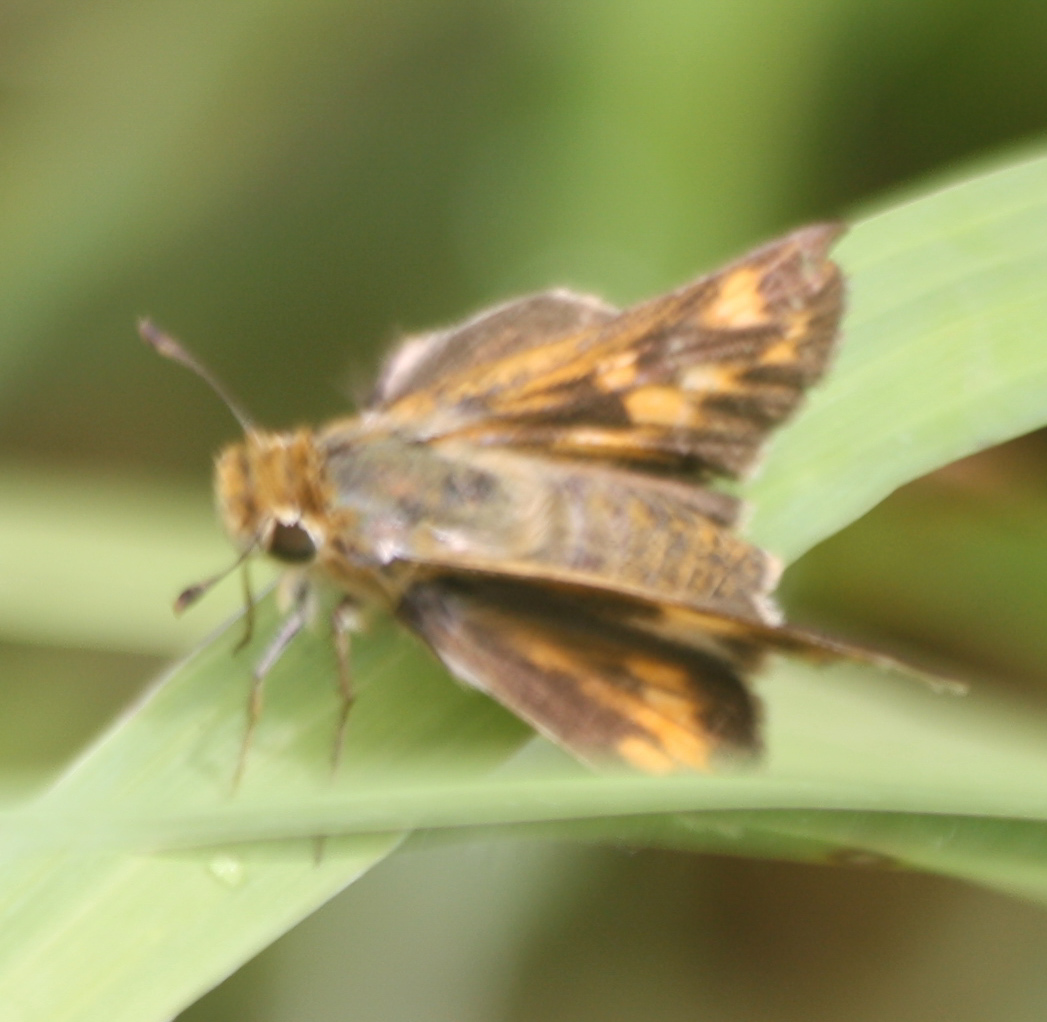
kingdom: Animalia
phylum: Arthropoda
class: Insecta
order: Lepidoptera
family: Hesperiidae
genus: Hylephila
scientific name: Hylephila phyleus
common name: Fiery skipper
